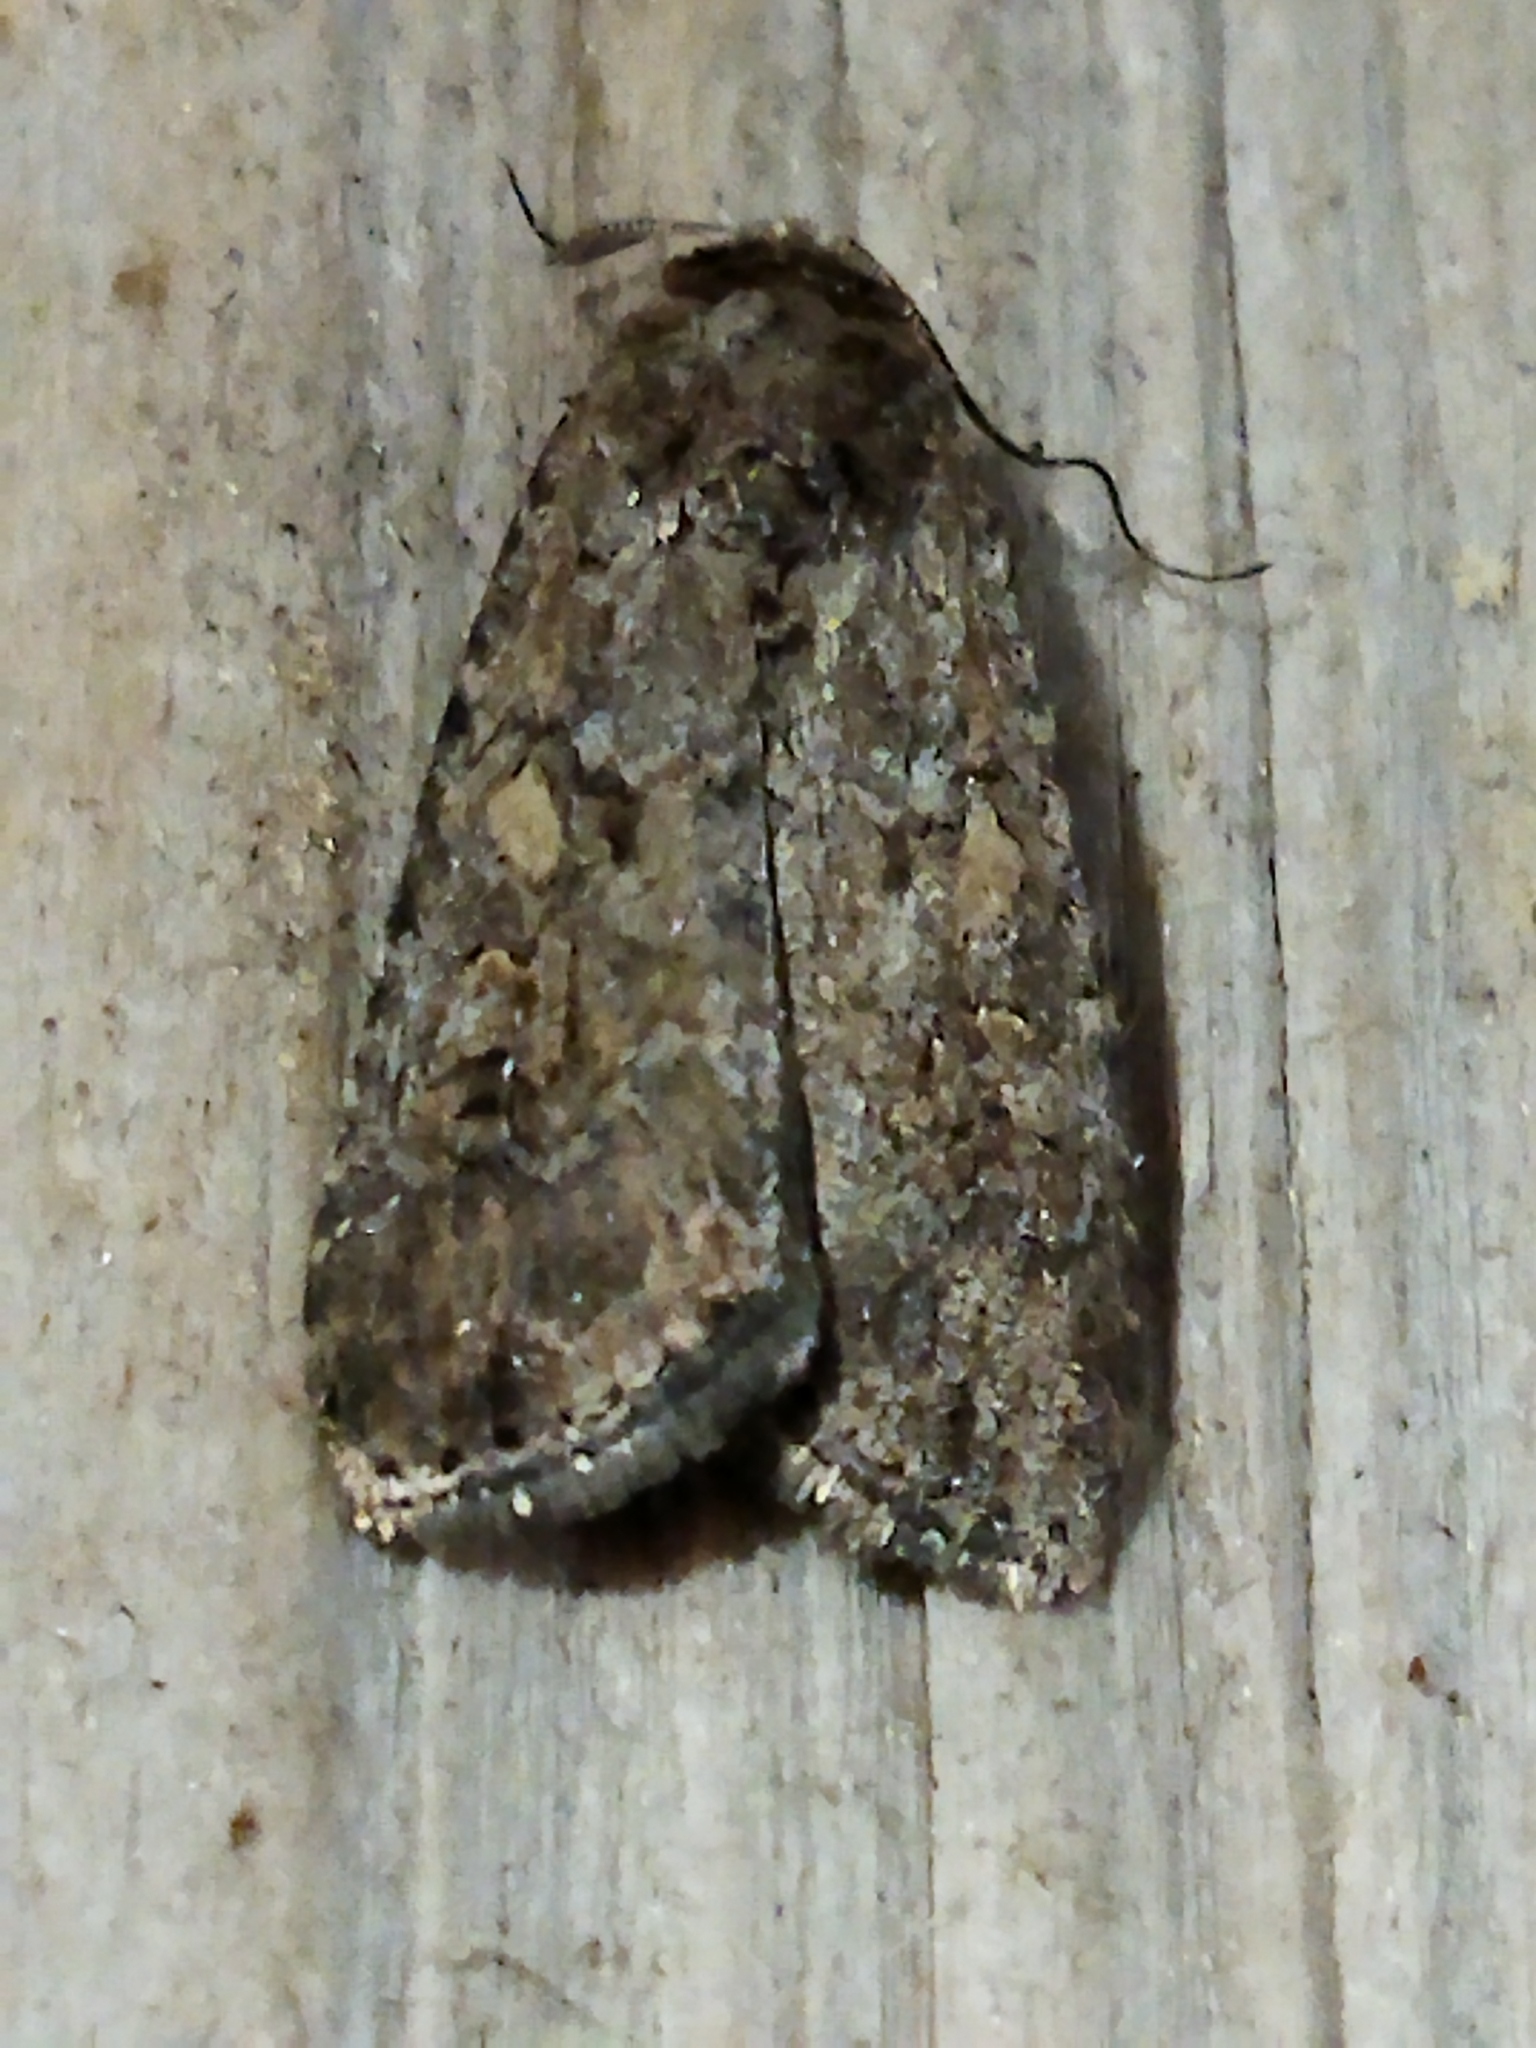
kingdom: Animalia
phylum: Arthropoda
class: Insecta
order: Lepidoptera
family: Noctuidae
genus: Spodoptera
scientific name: Spodoptera exigua
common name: Beet armyworm
